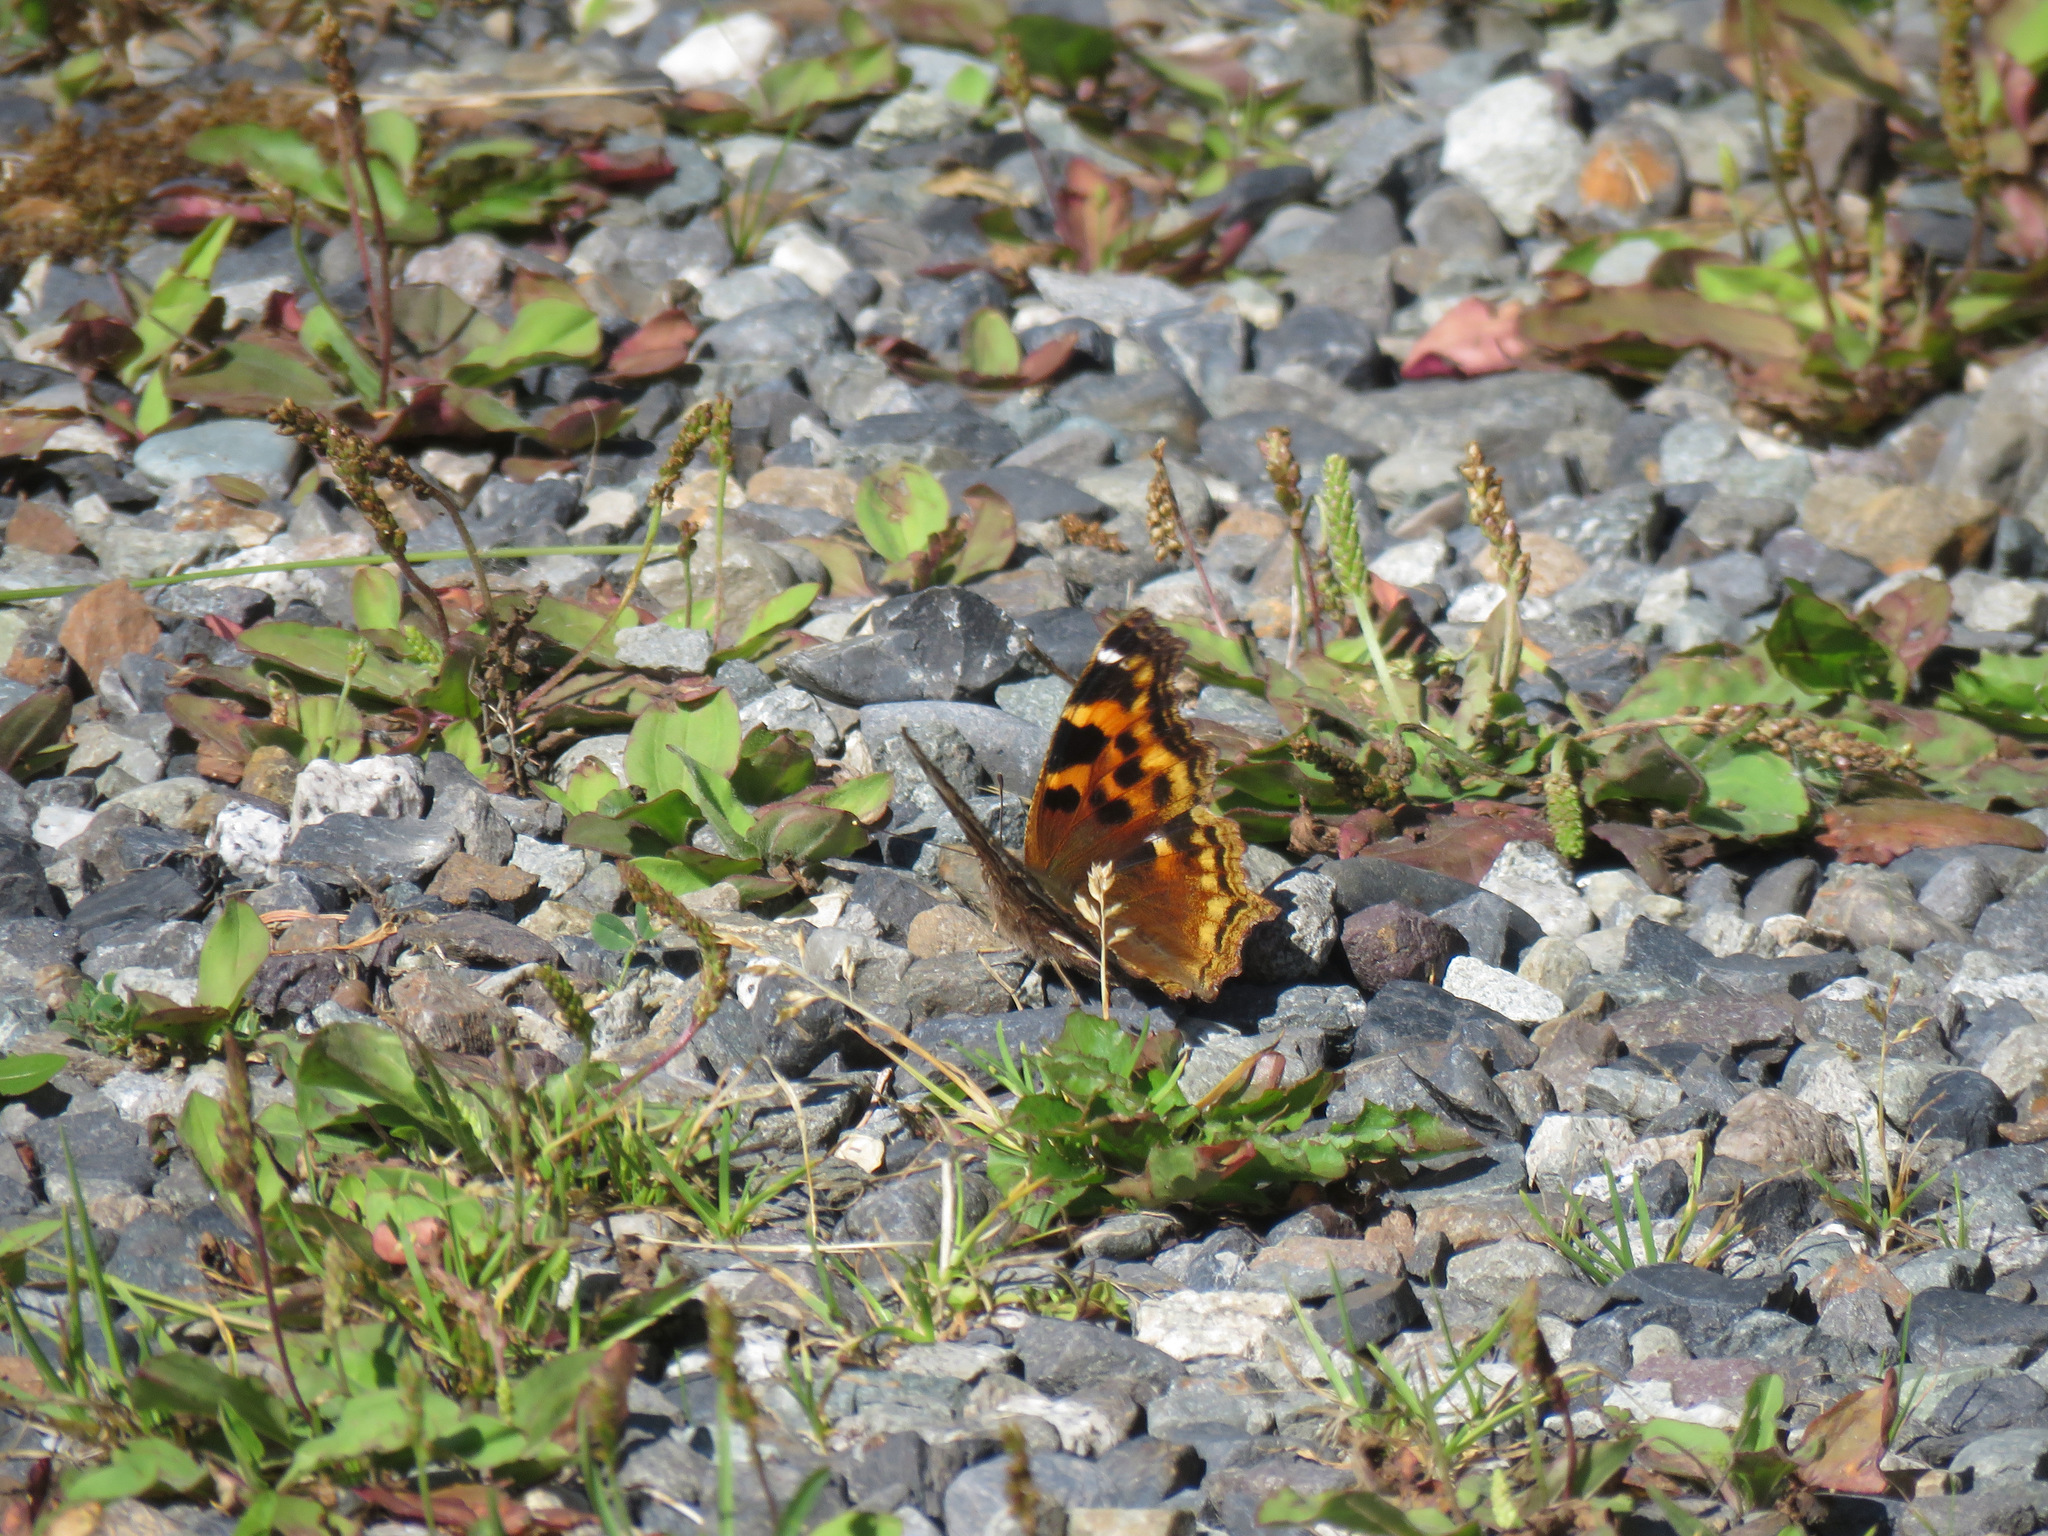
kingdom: Animalia
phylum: Arthropoda
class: Insecta
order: Lepidoptera
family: Nymphalidae
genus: Polygonia
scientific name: Polygonia vaualbum
